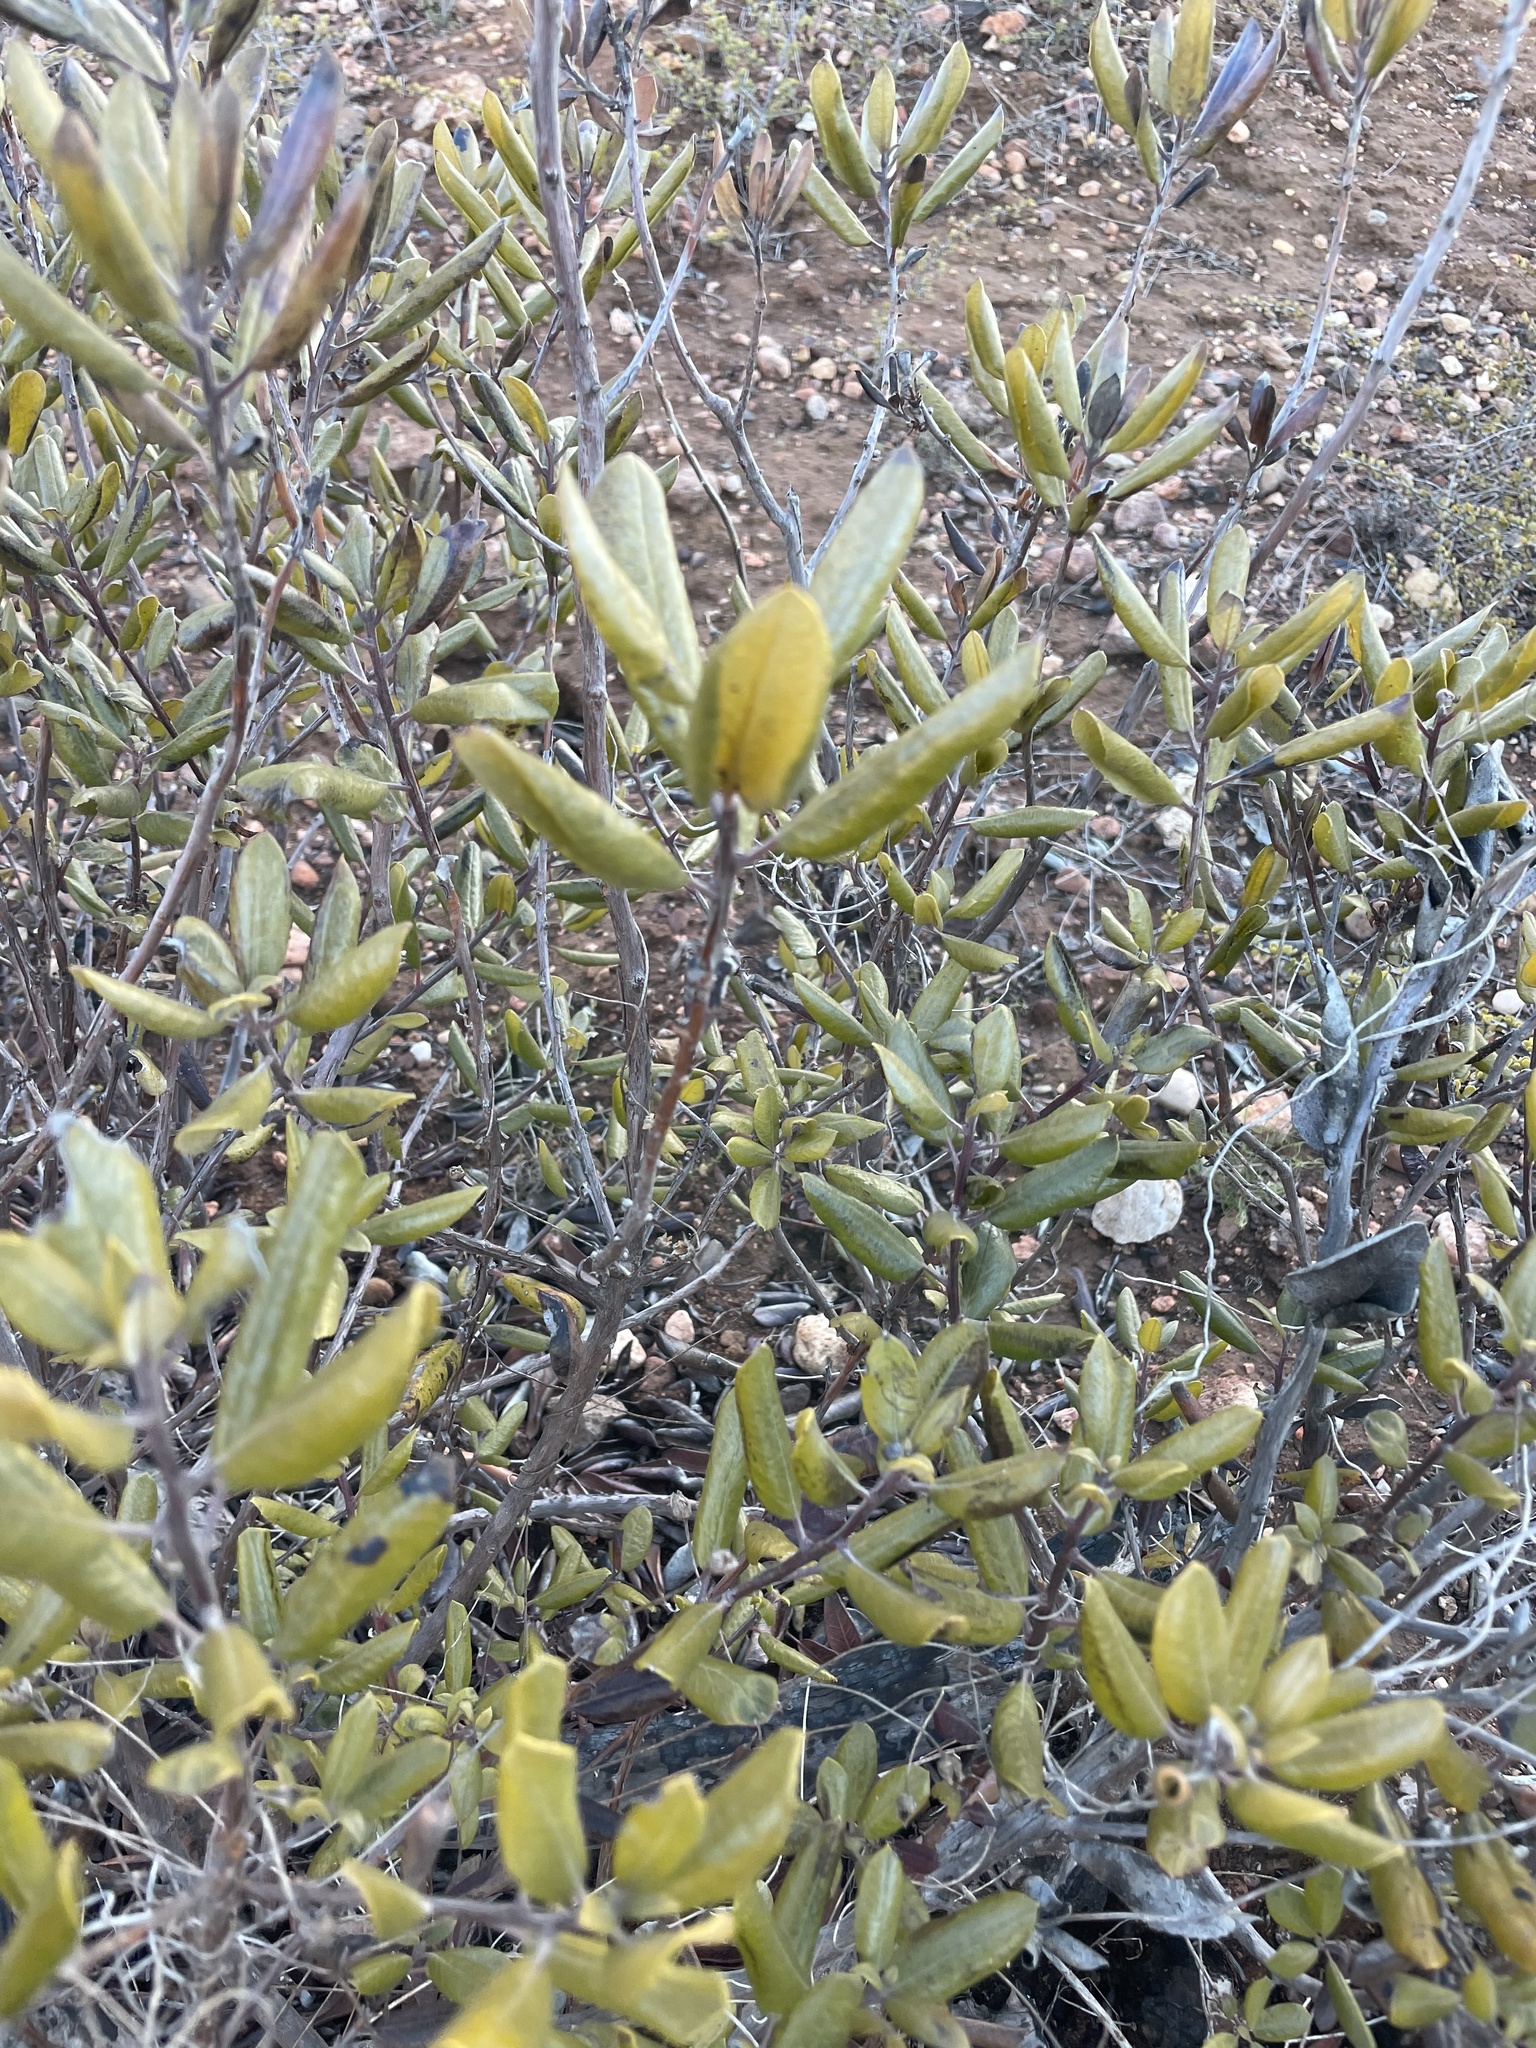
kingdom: Plantae
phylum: Tracheophyta
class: Magnoliopsida
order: Ericales
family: Ericaceae
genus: Arctostaphylos
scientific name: Arctostaphylos bicolor
